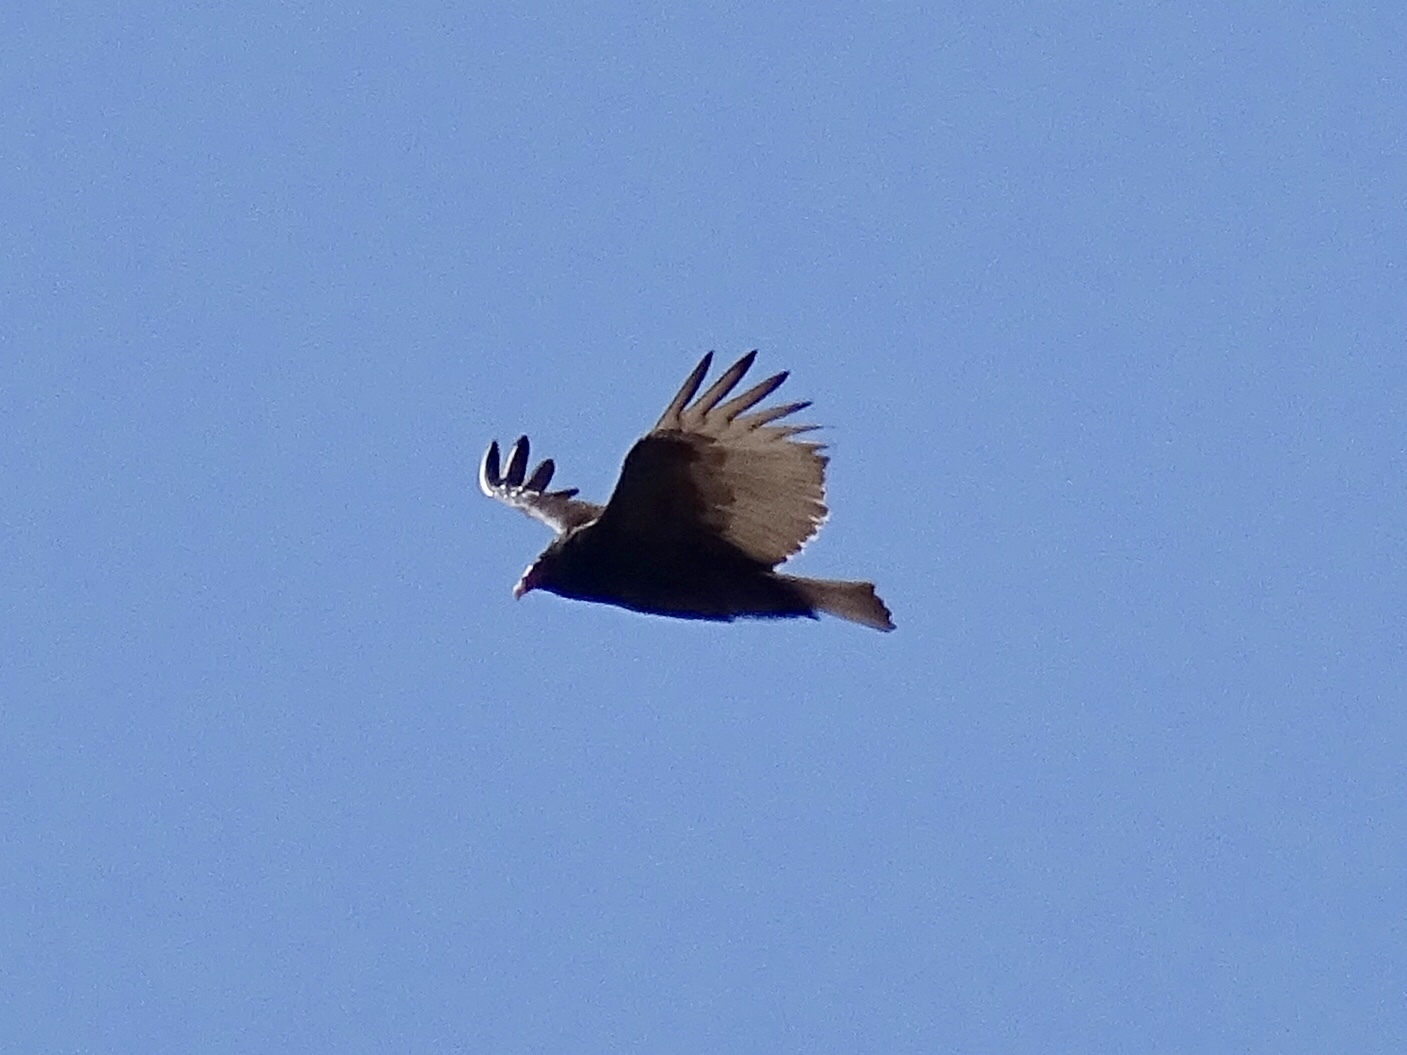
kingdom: Animalia
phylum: Chordata
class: Aves
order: Accipitriformes
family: Cathartidae
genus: Cathartes
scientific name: Cathartes aura
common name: Turkey vulture
